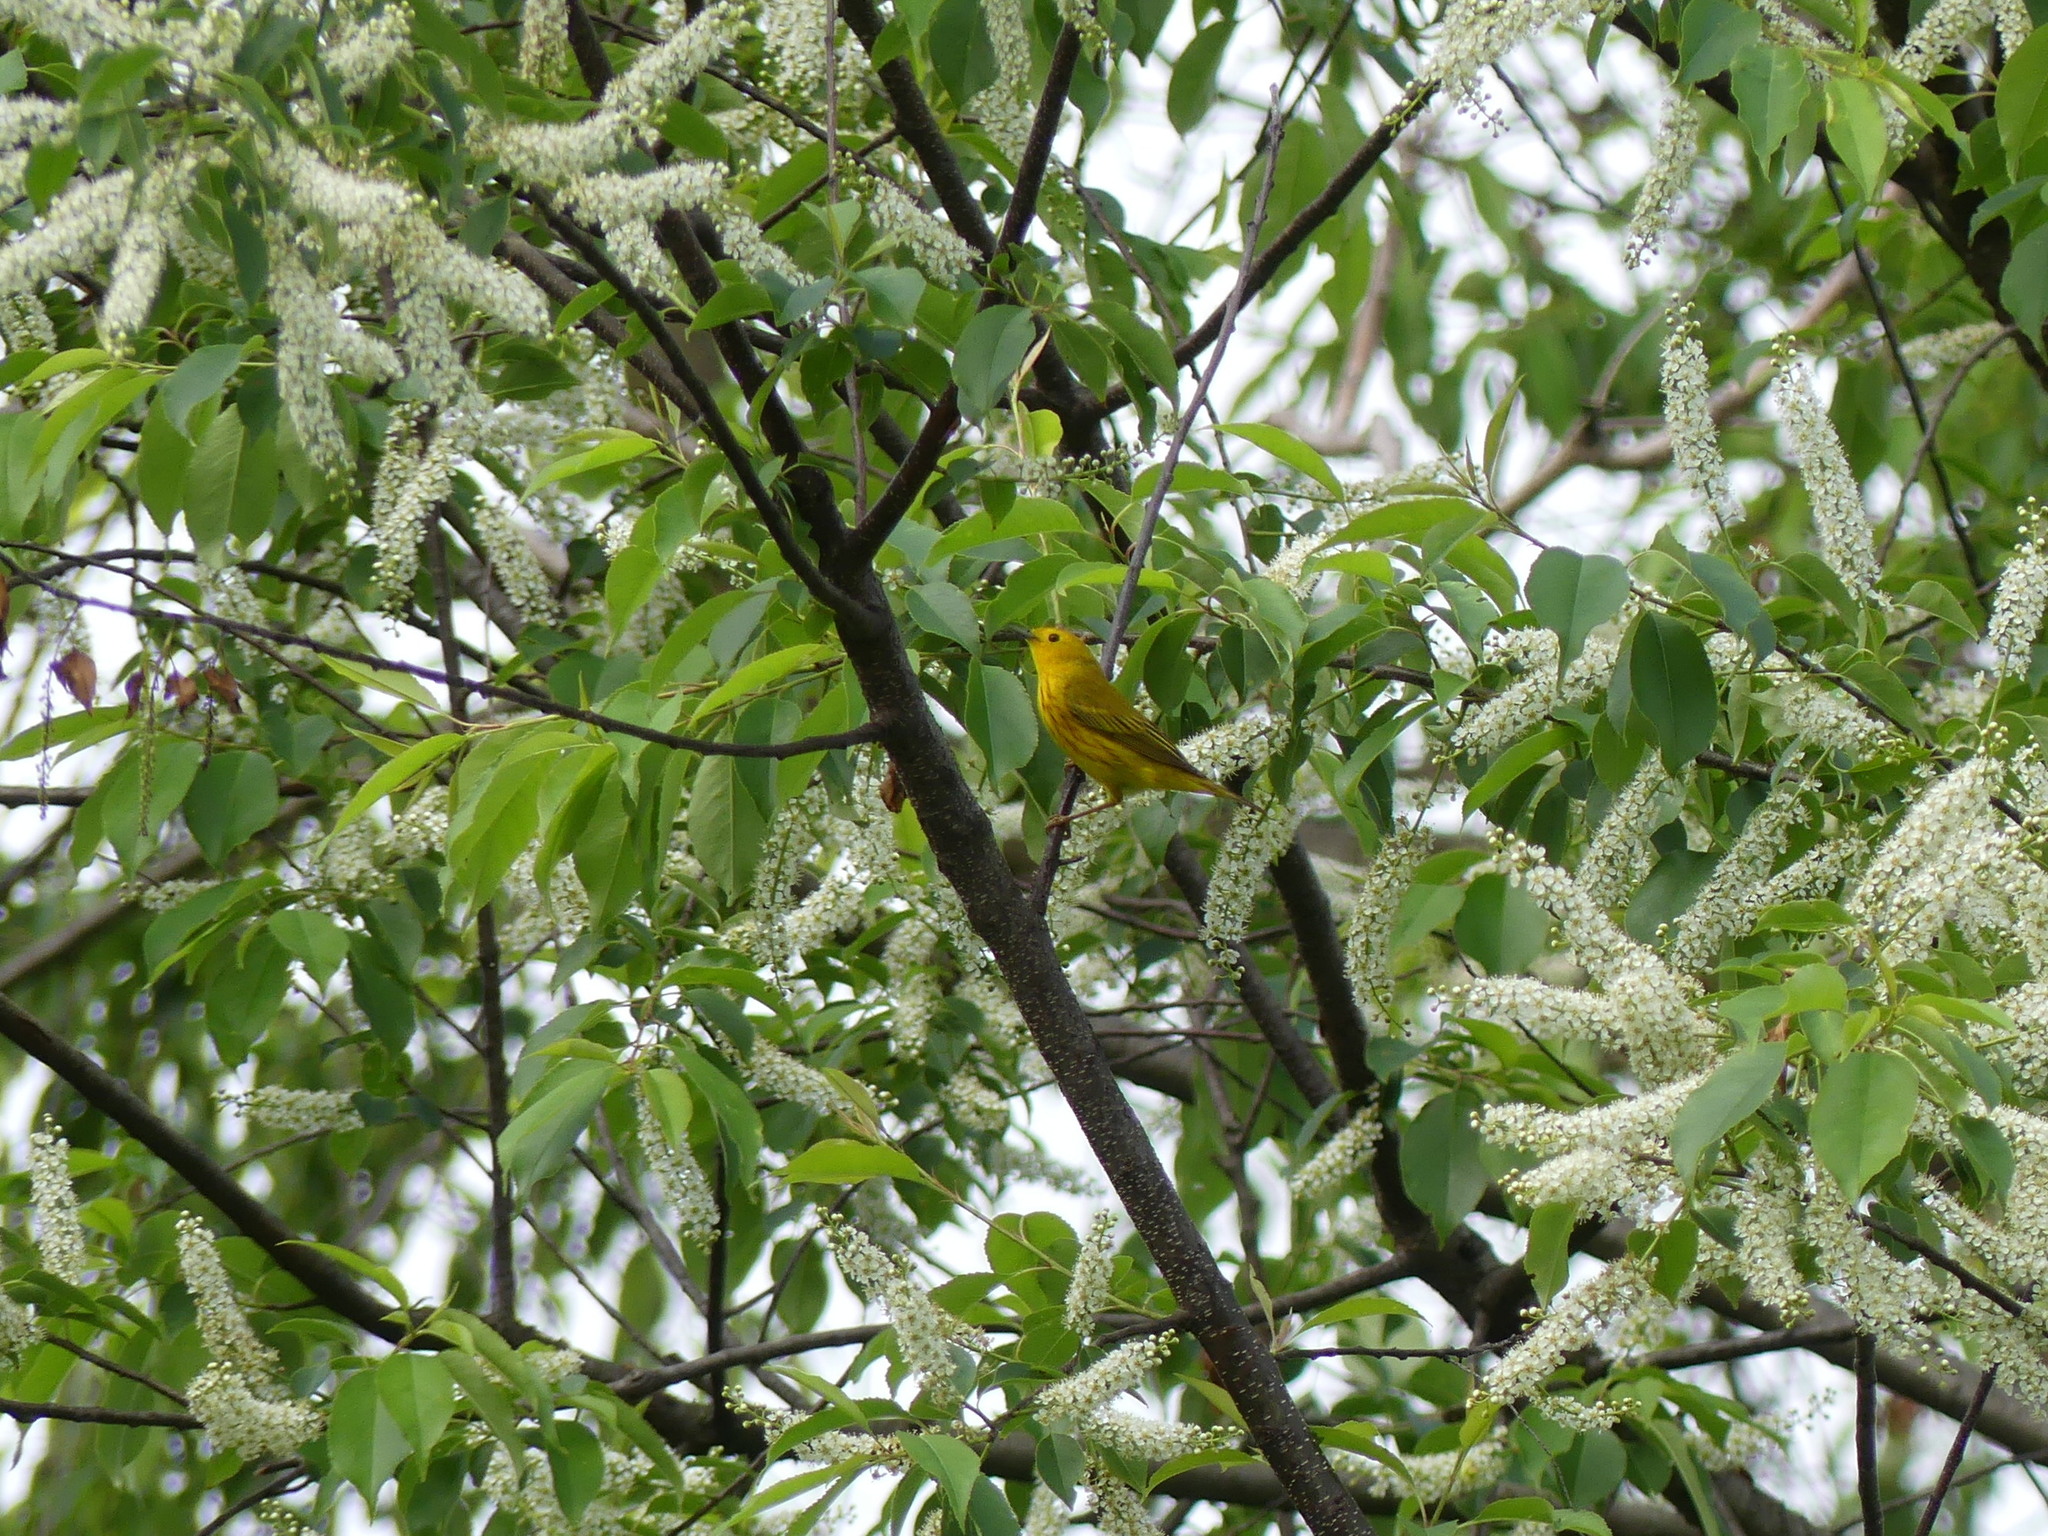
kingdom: Animalia
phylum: Chordata
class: Aves
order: Passeriformes
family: Parulidae
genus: Setophaga
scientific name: Setophaga petechia
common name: Yellow warbler
